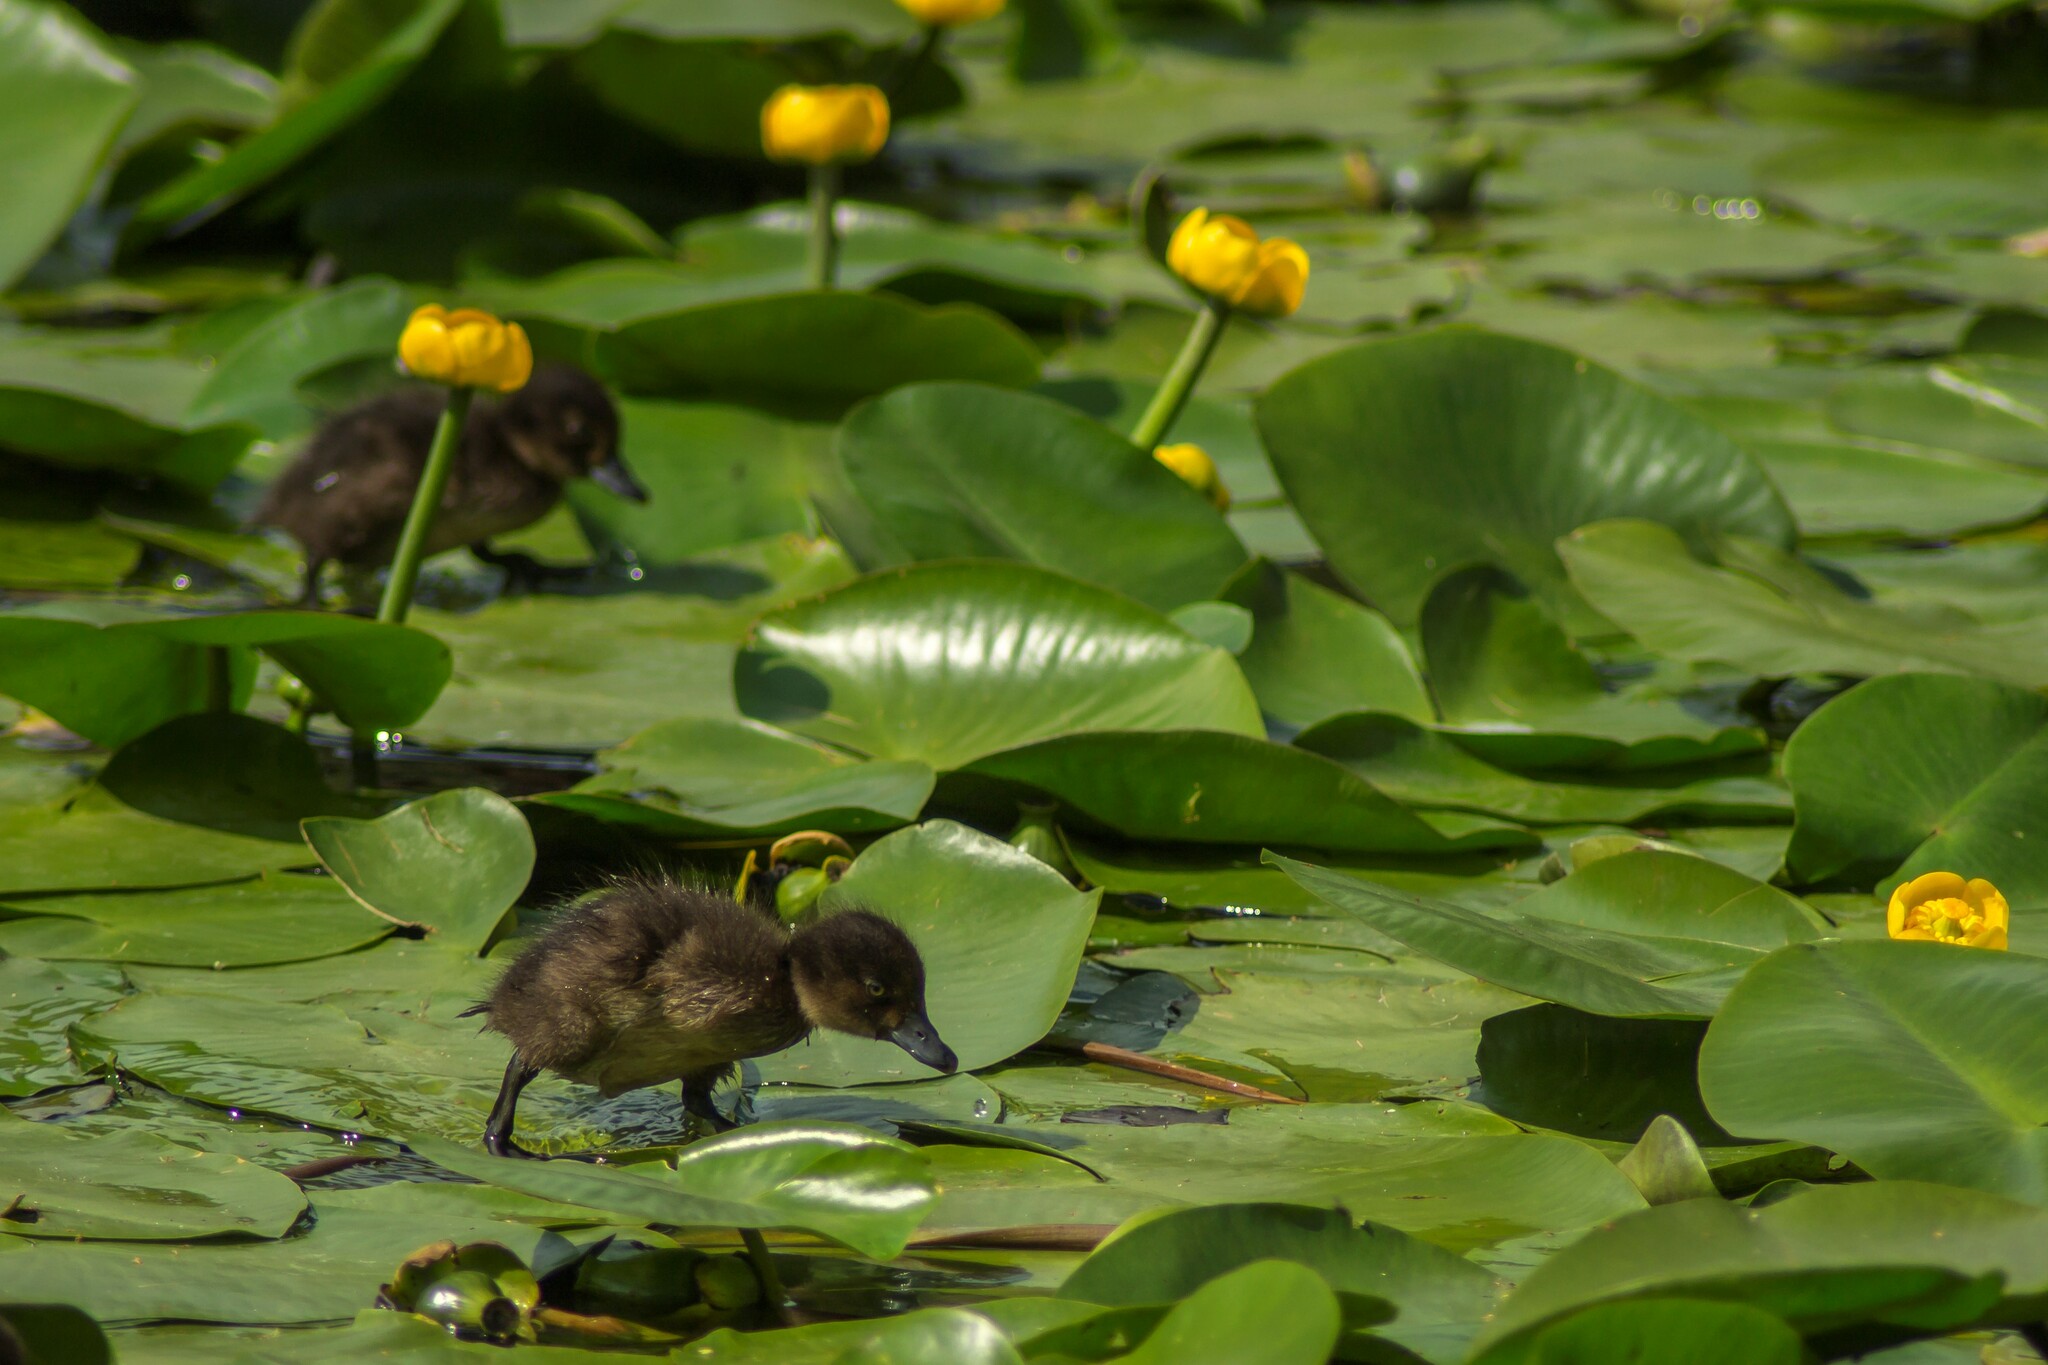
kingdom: Animalia
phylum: Chordata
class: Aves
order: Anseriformes
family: Anatidae
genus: Aythya
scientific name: Aythya fuligula
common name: Tufted duck
